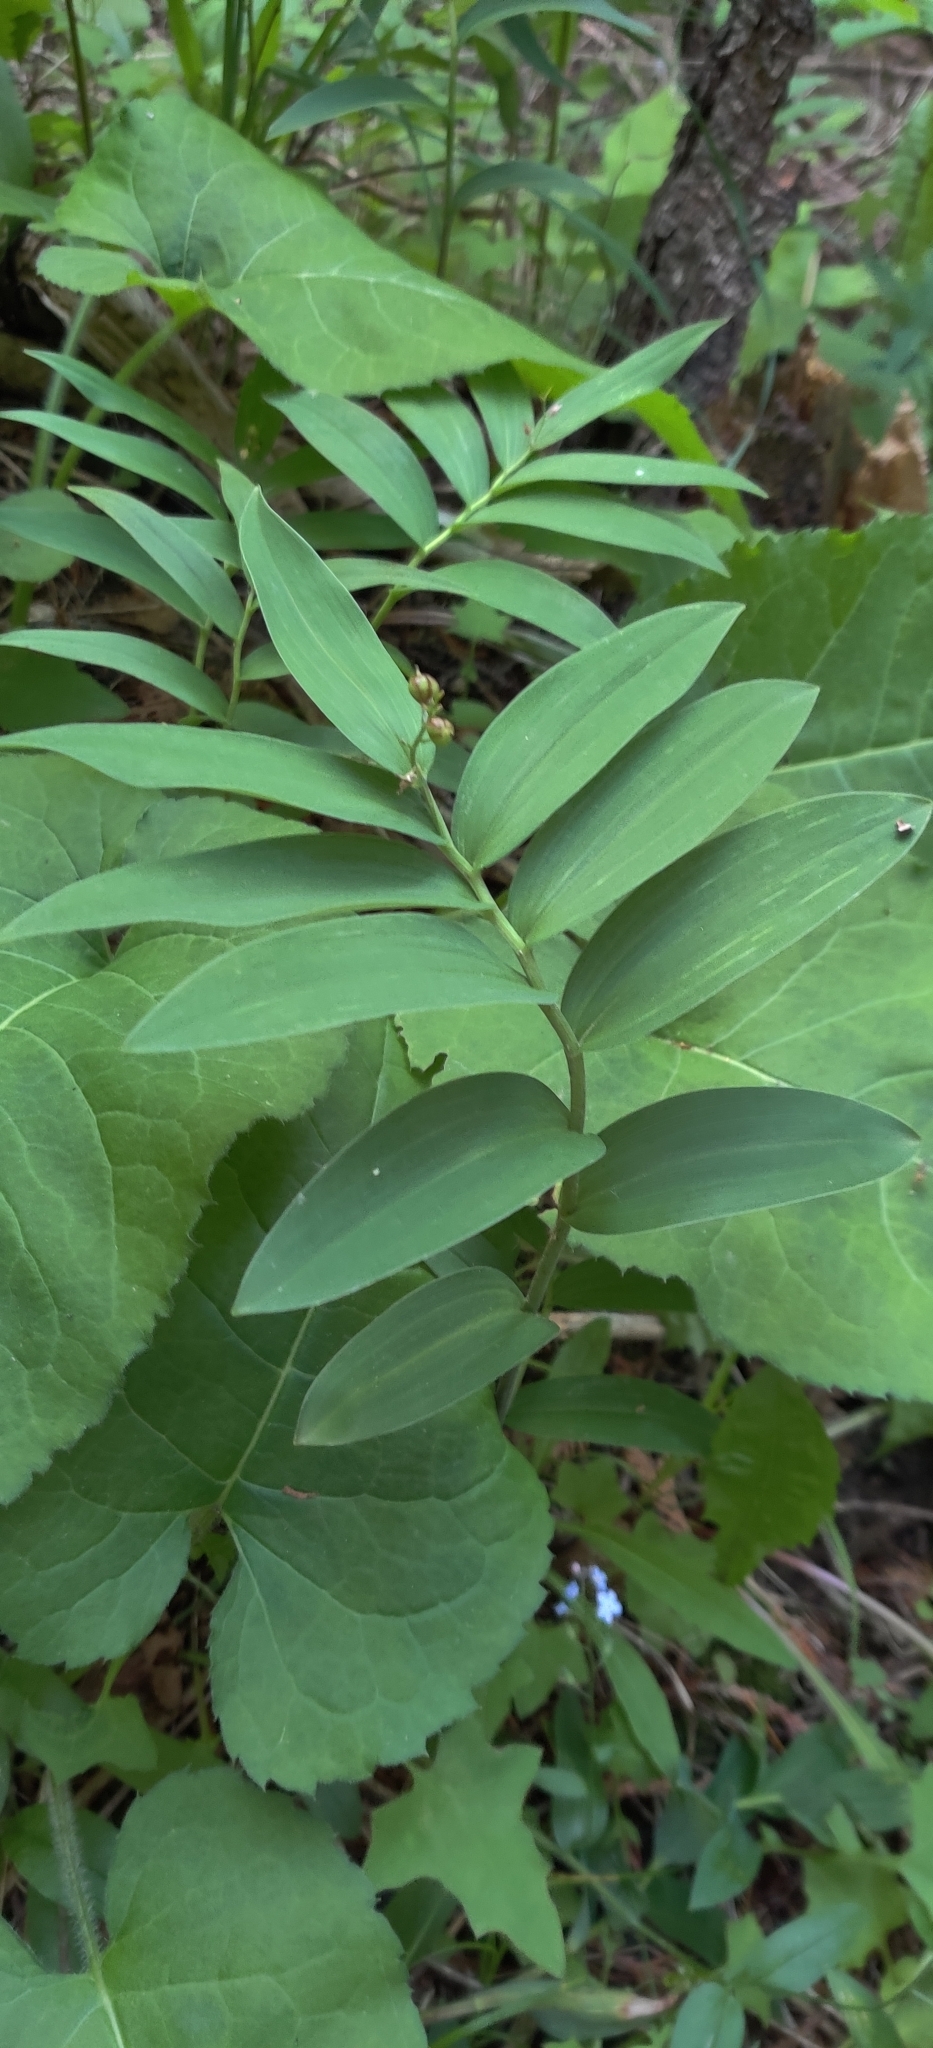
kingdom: Plantae
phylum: Tracheophyta
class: Liliopsida
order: Asparagales
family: Asparagaceae
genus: Maianthemum
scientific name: Maianthemum stellatum
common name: Little false solomon's seal
